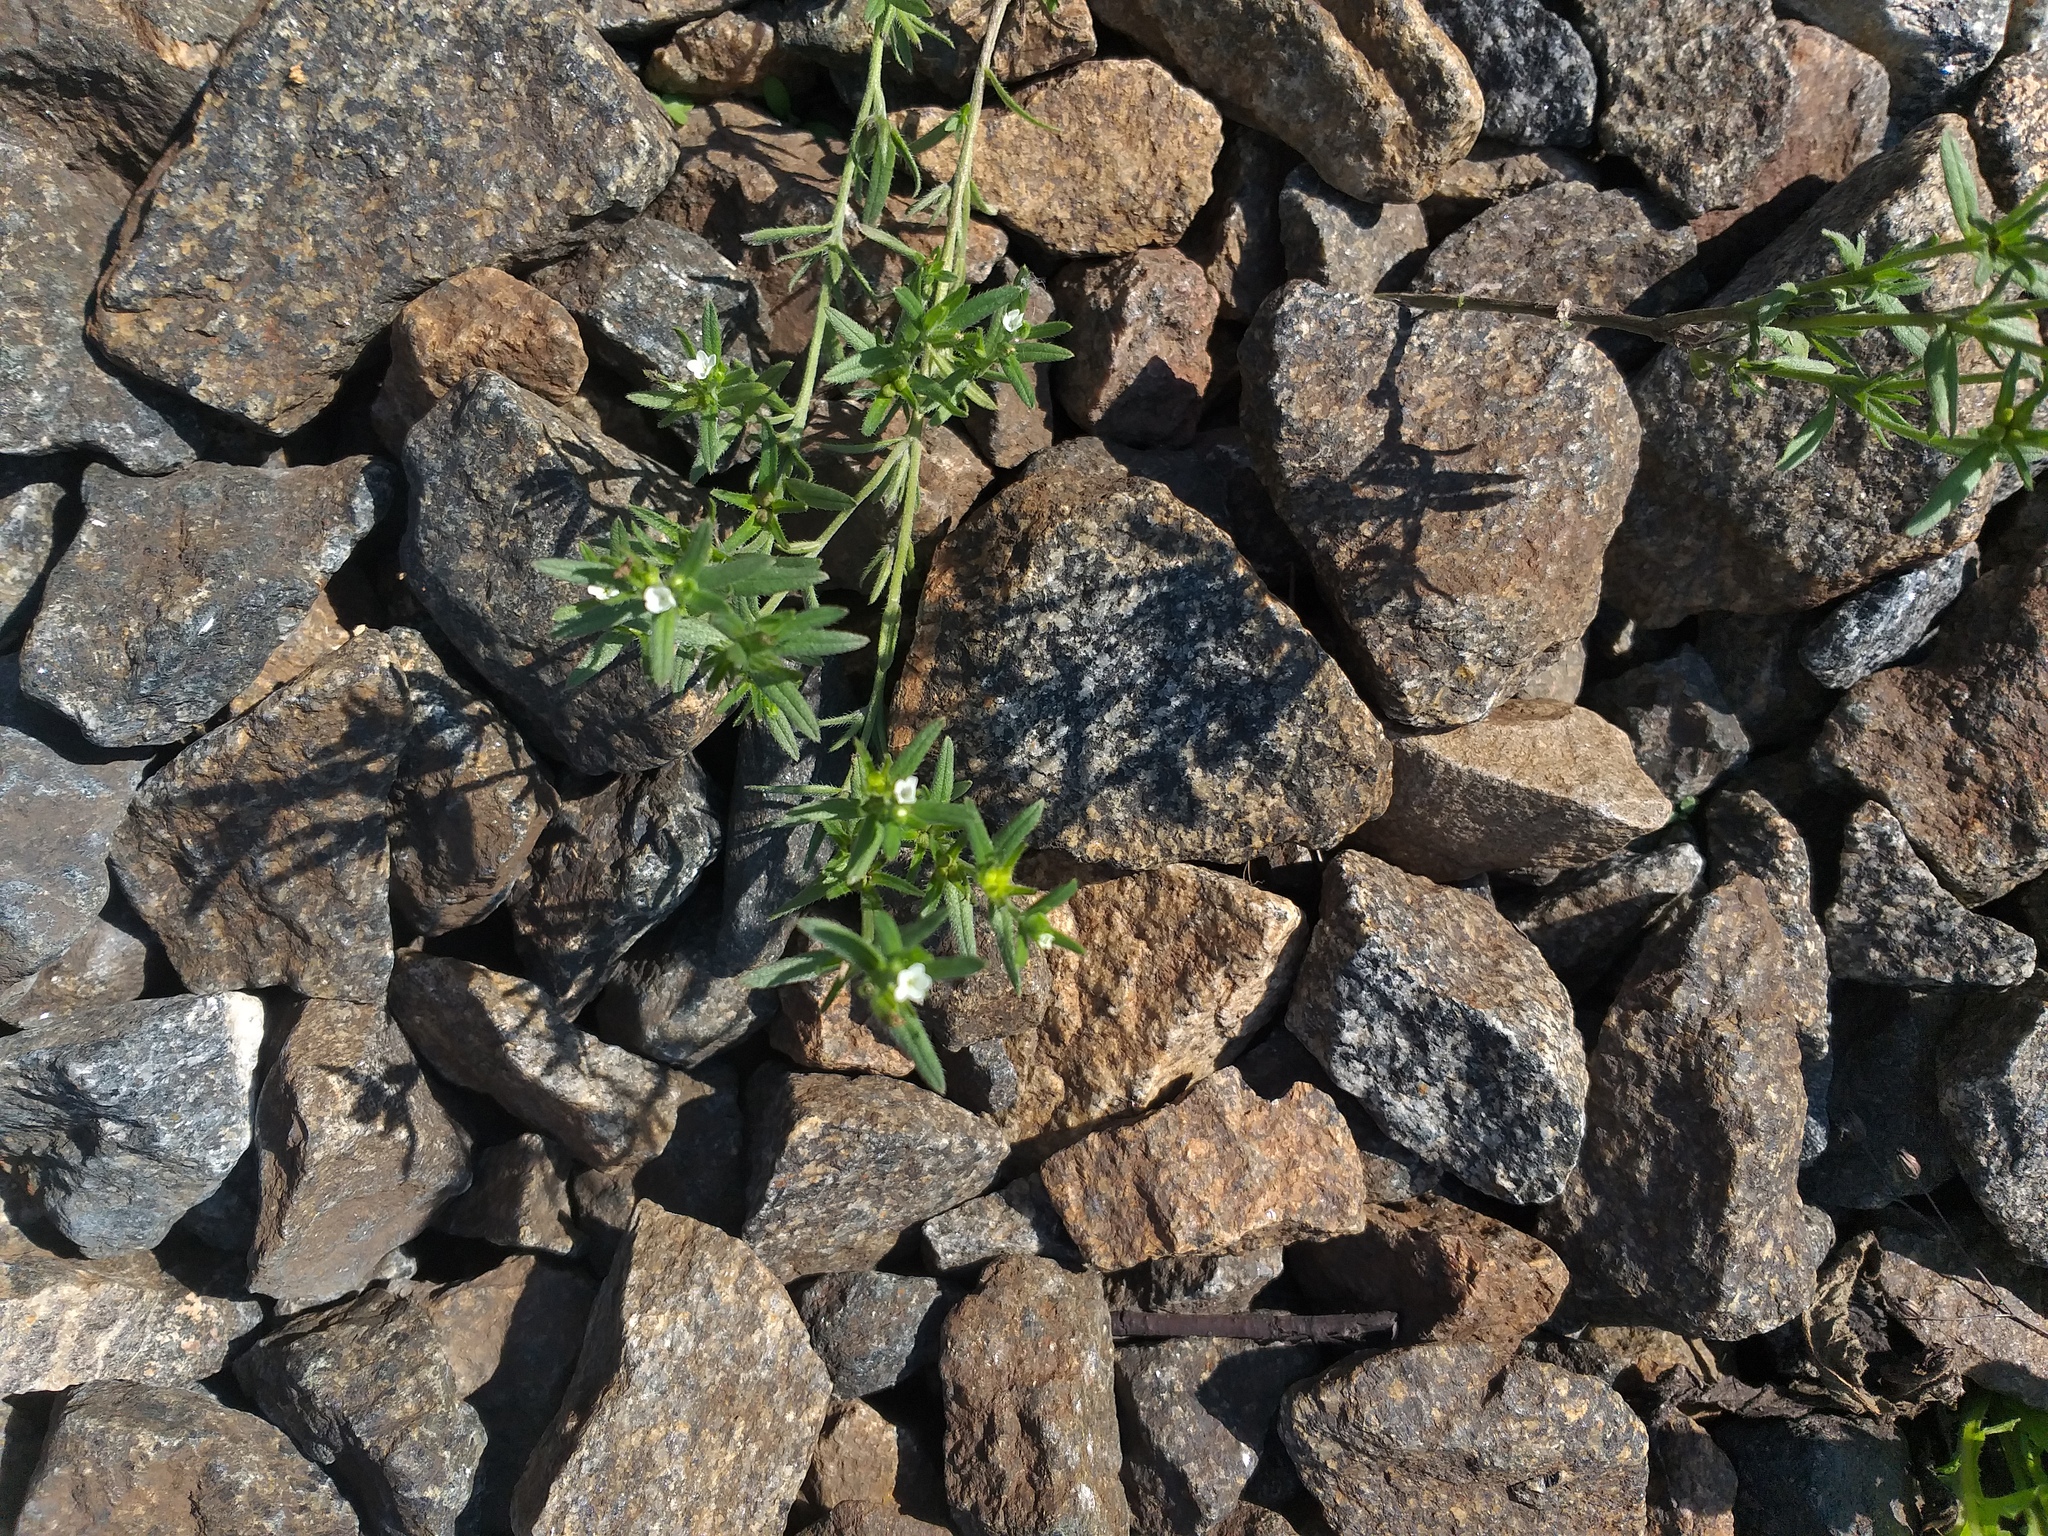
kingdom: Plantae
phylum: Tracheophyta
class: Magnoliopsida
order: Boraginales
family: Boraginaceae
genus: Buglossoides
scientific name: Buglossoides arvensis
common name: Corn gromwell
